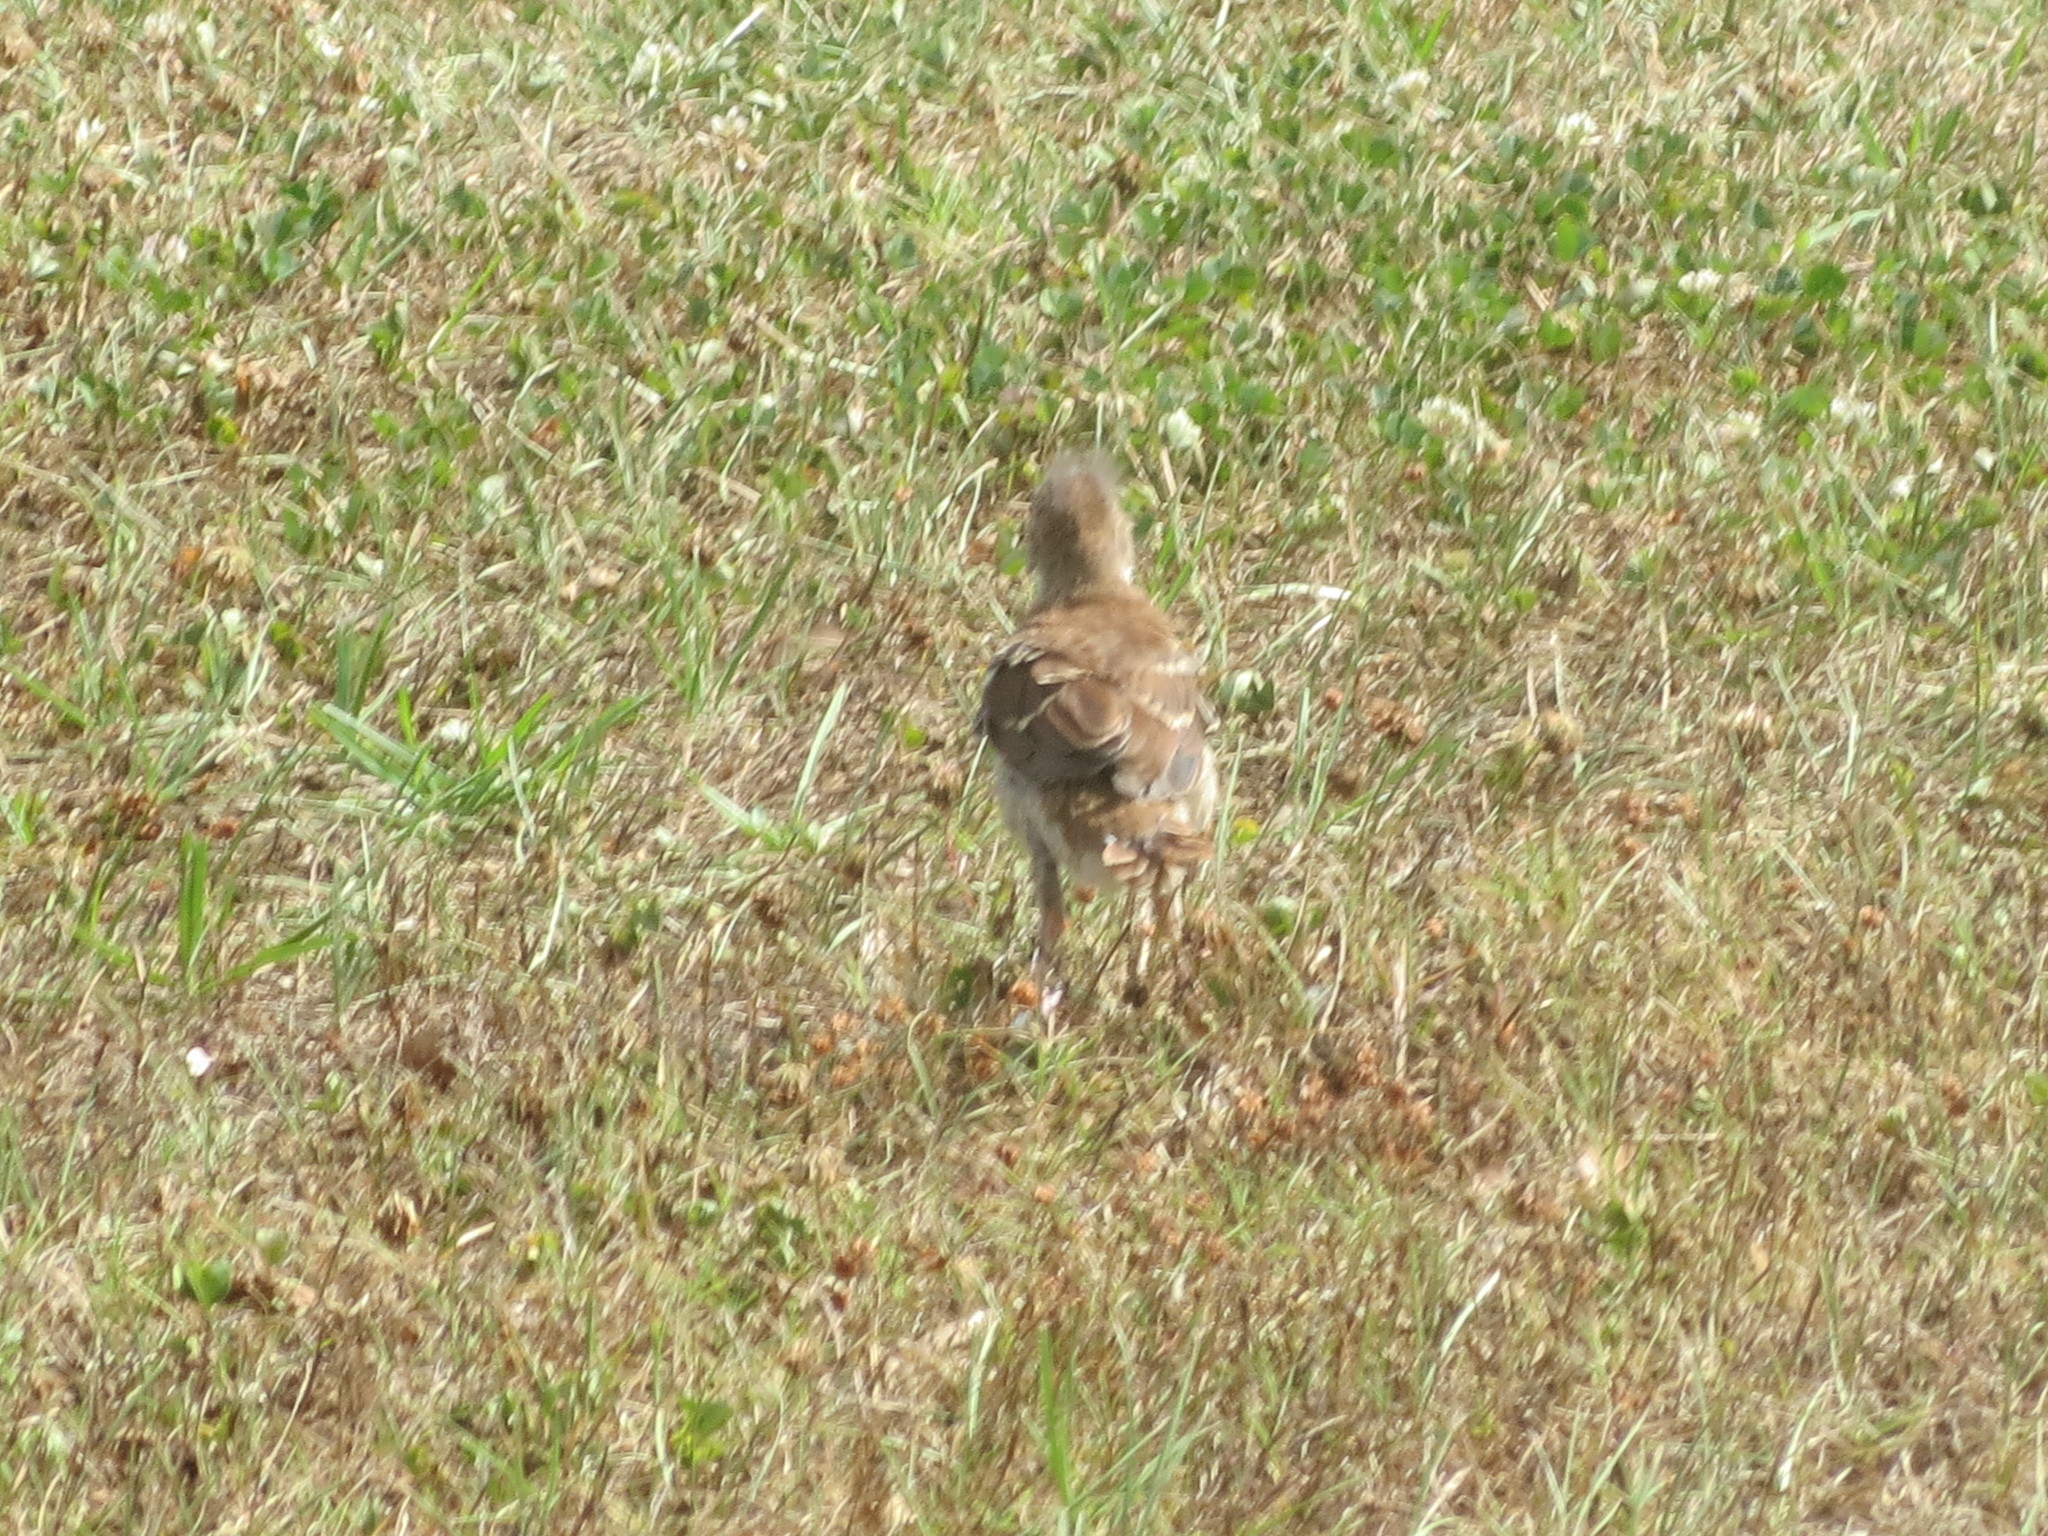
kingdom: Animalia
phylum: Chordata
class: Aves
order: Passeriformes
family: Mimidae
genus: Toxostoma
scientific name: Toxostoma rufum
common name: Brown thrasher
